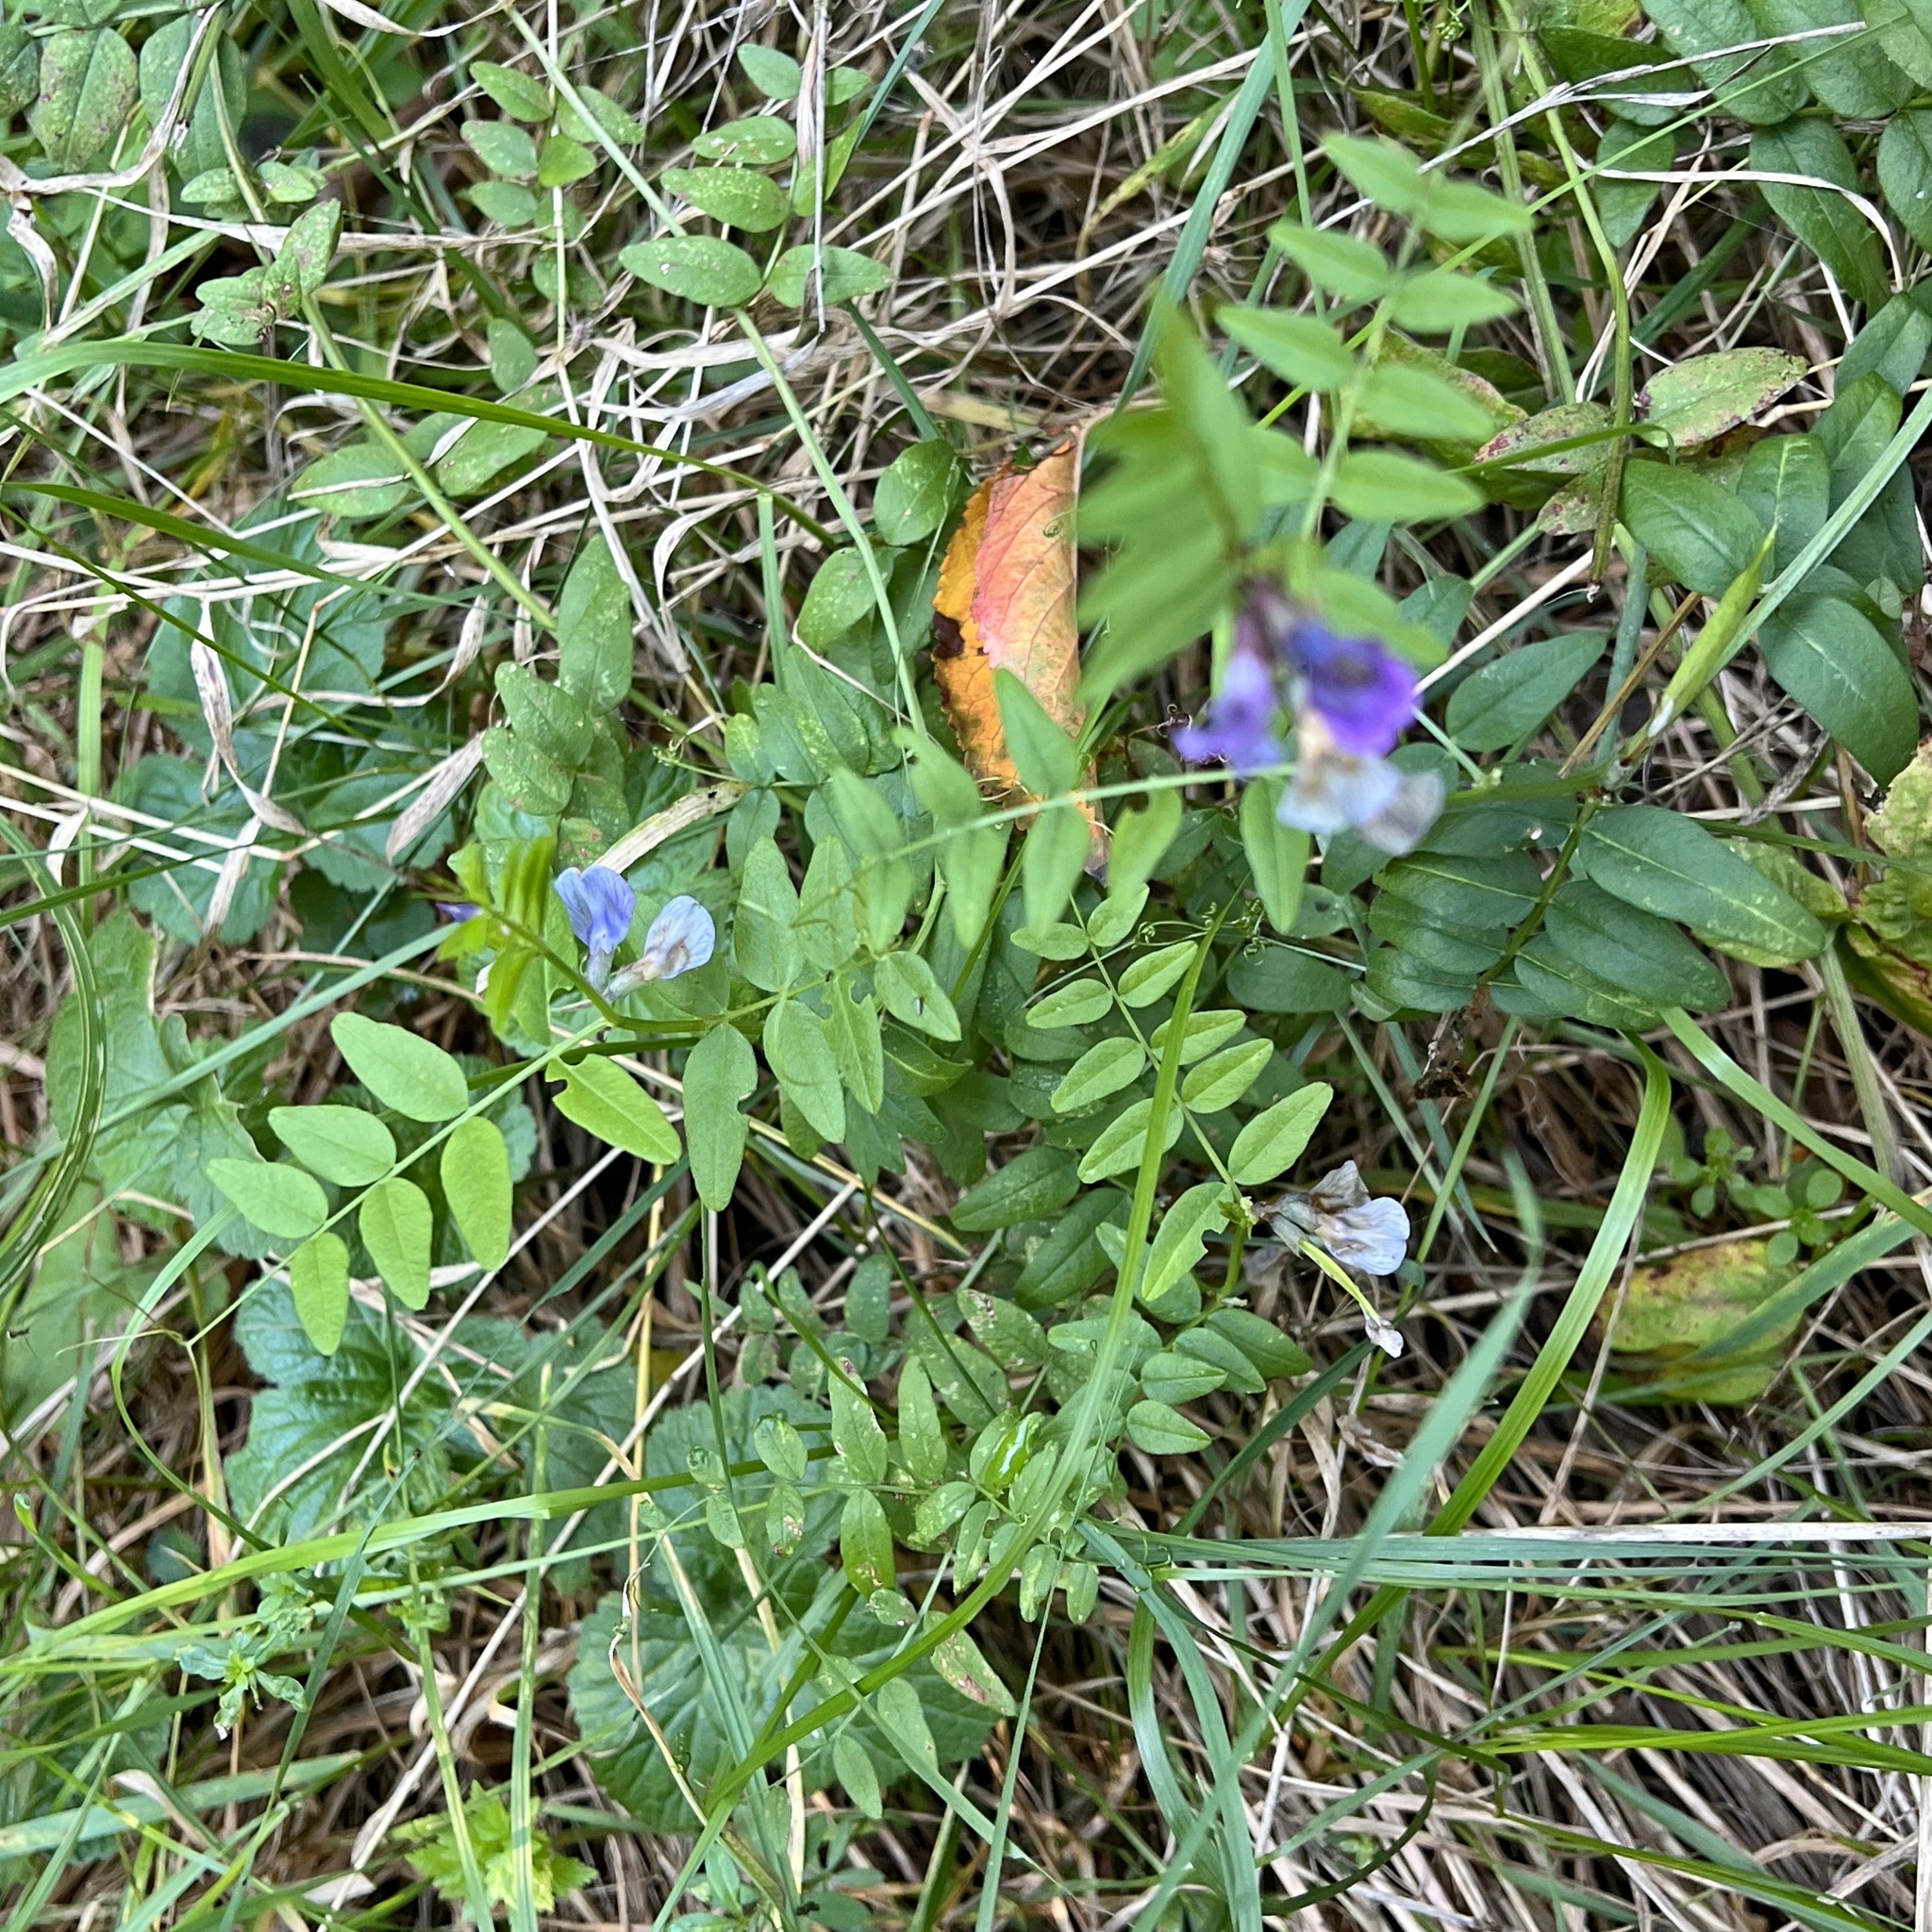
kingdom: Plantae
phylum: Tracheophyta
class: Magnoliopsida
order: Fabales
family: Fabaceae
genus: Vicia
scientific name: Vicia sepium
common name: Bush vetch
